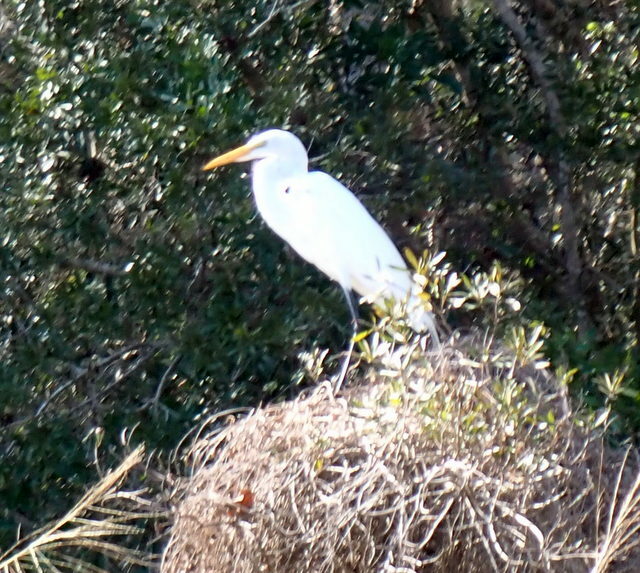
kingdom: Animalia
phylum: Chordata
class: Aves
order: Pelecaniformes
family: Ardeidae
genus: Ardea
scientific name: Ardea alba
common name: Great egret
